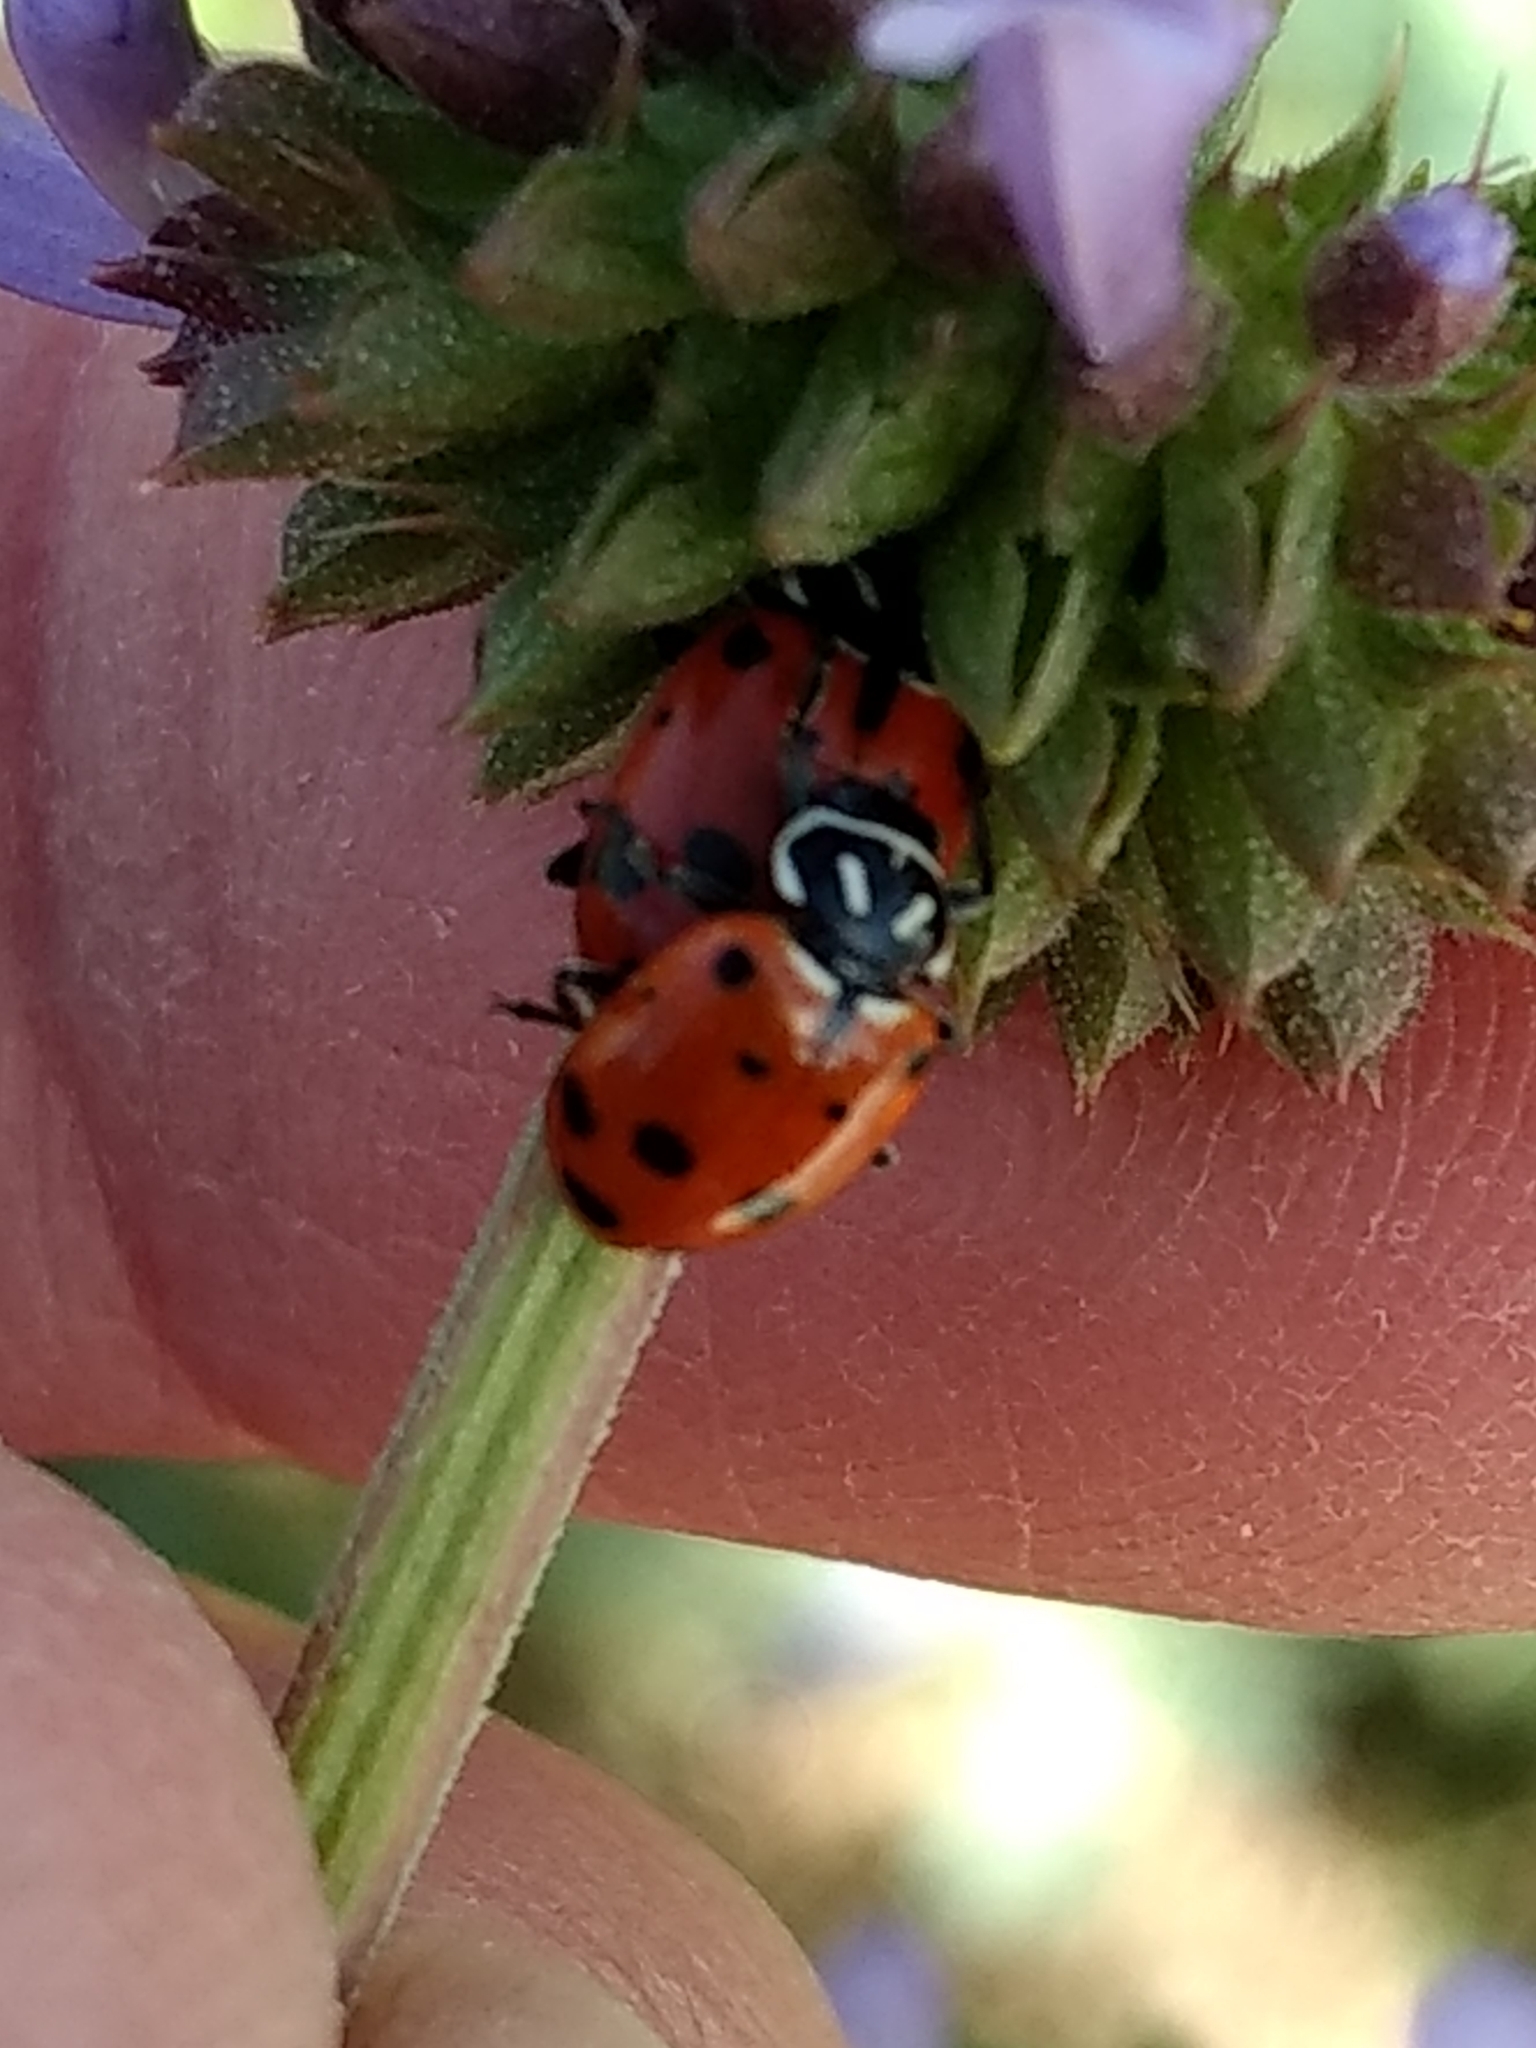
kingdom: Animalia
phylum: Arthropoda
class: Insecta
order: Coleoptera
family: Coccinellidae
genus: Hippodamia
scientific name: Hippodamia convergens
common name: Convergent lady beetle
